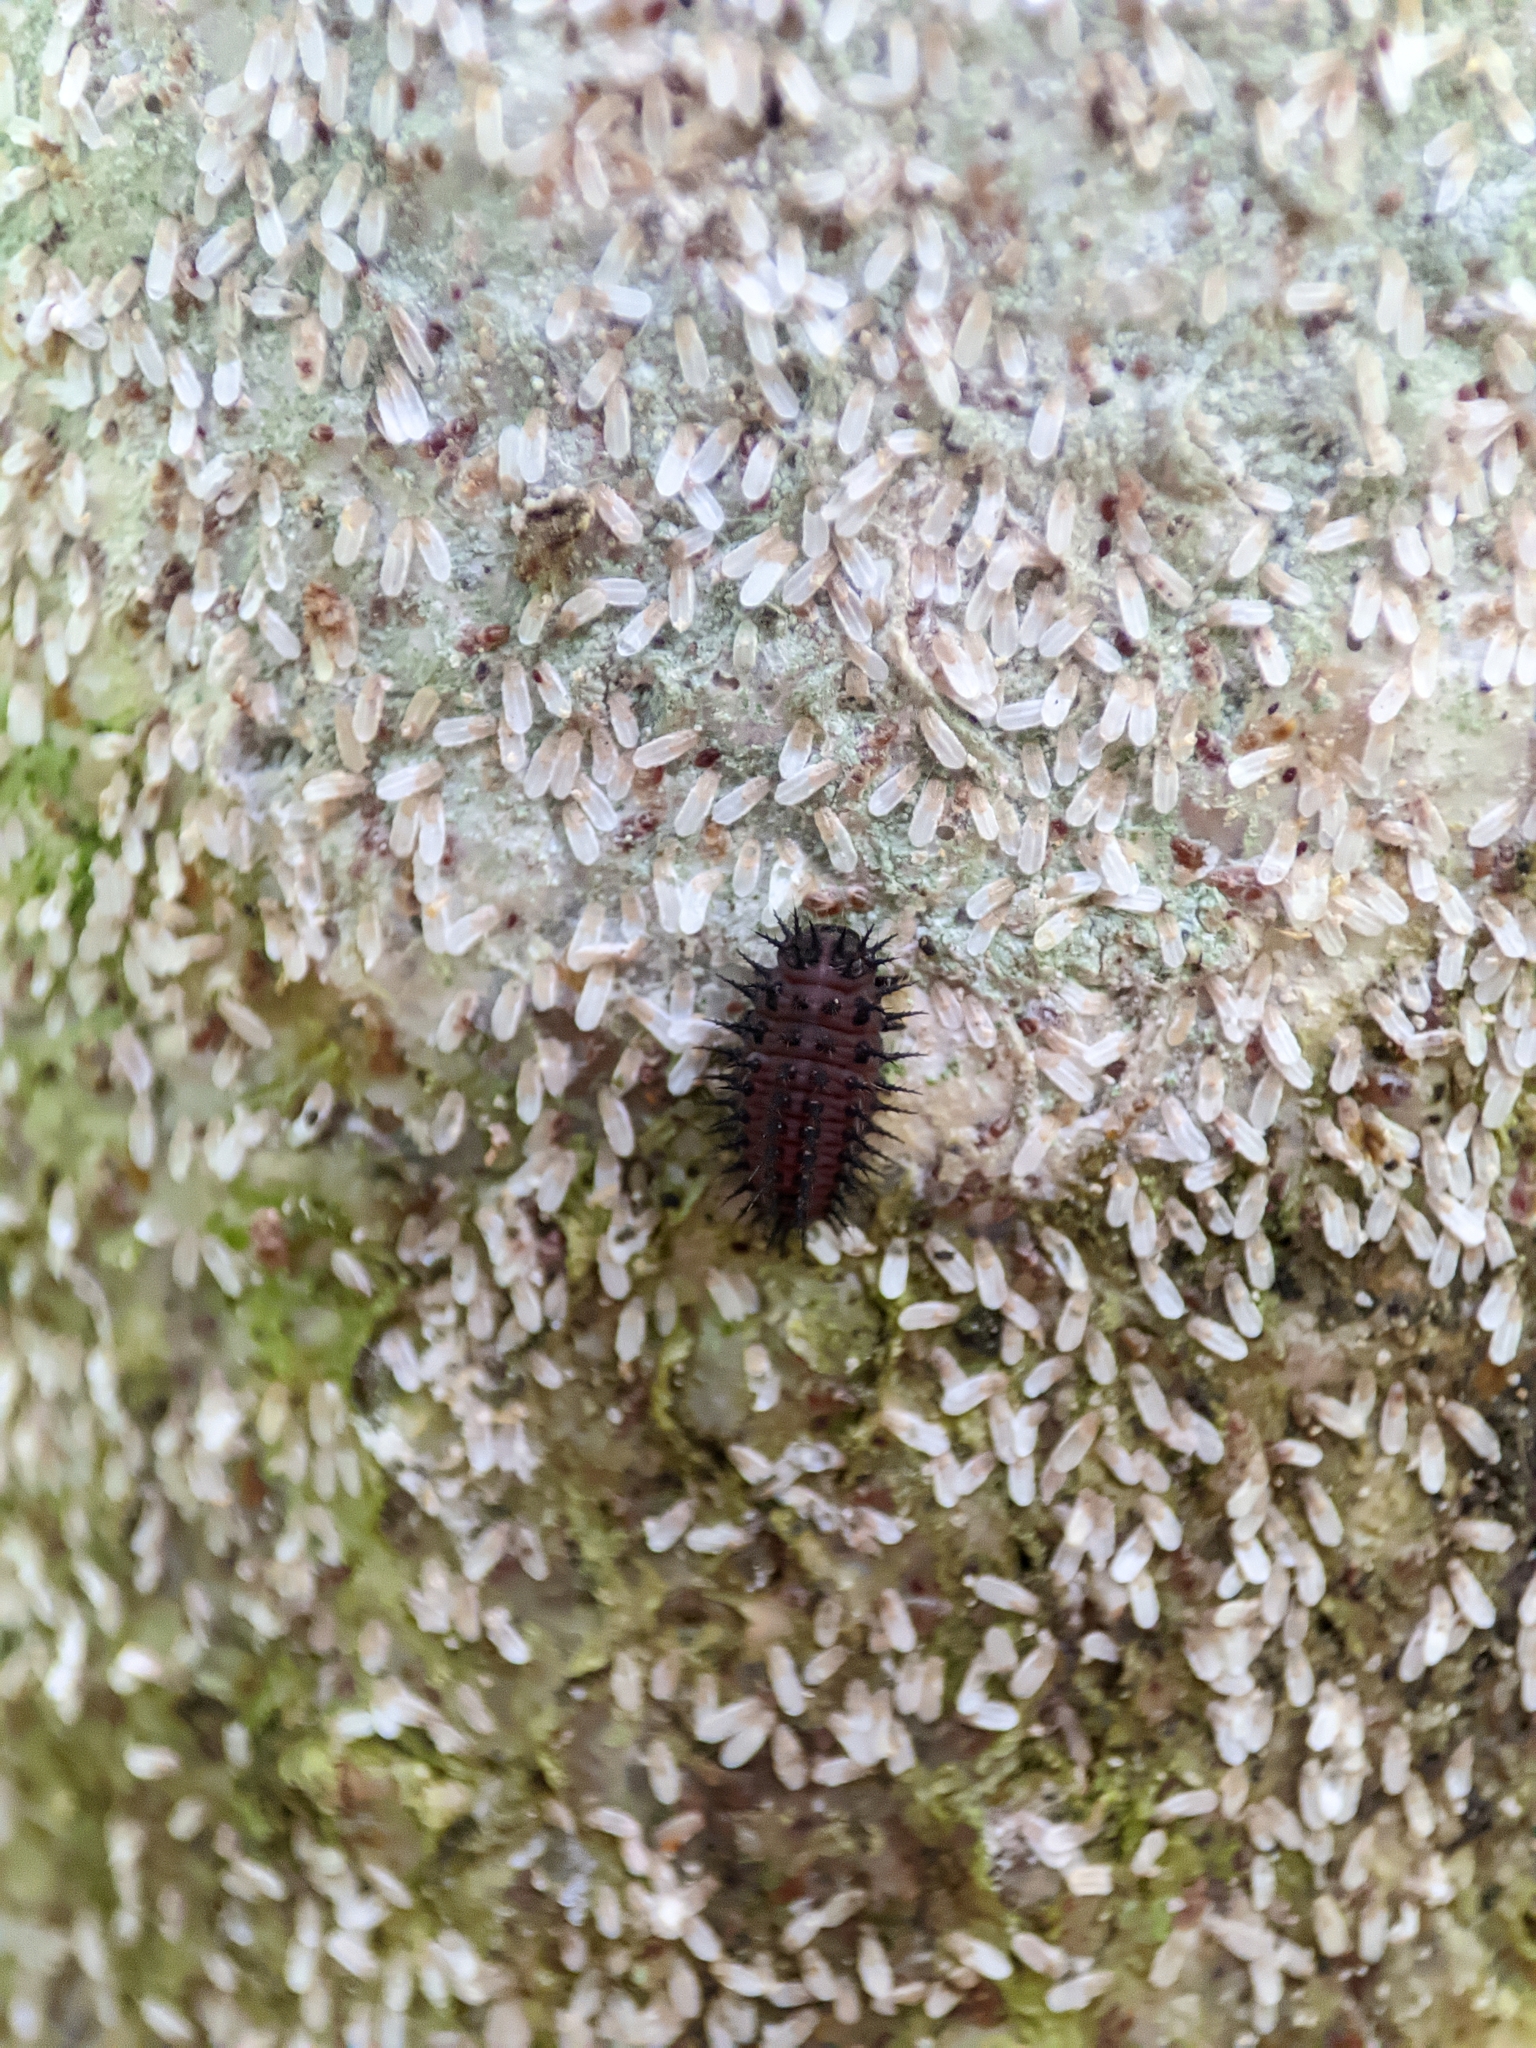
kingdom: Animalia
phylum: Arthropoda
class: Insecta
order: Coleoptera
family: Coccinellidae
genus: Chilocorus
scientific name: Chilocorus renipustulatus
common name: Kidney-spot ladybird
